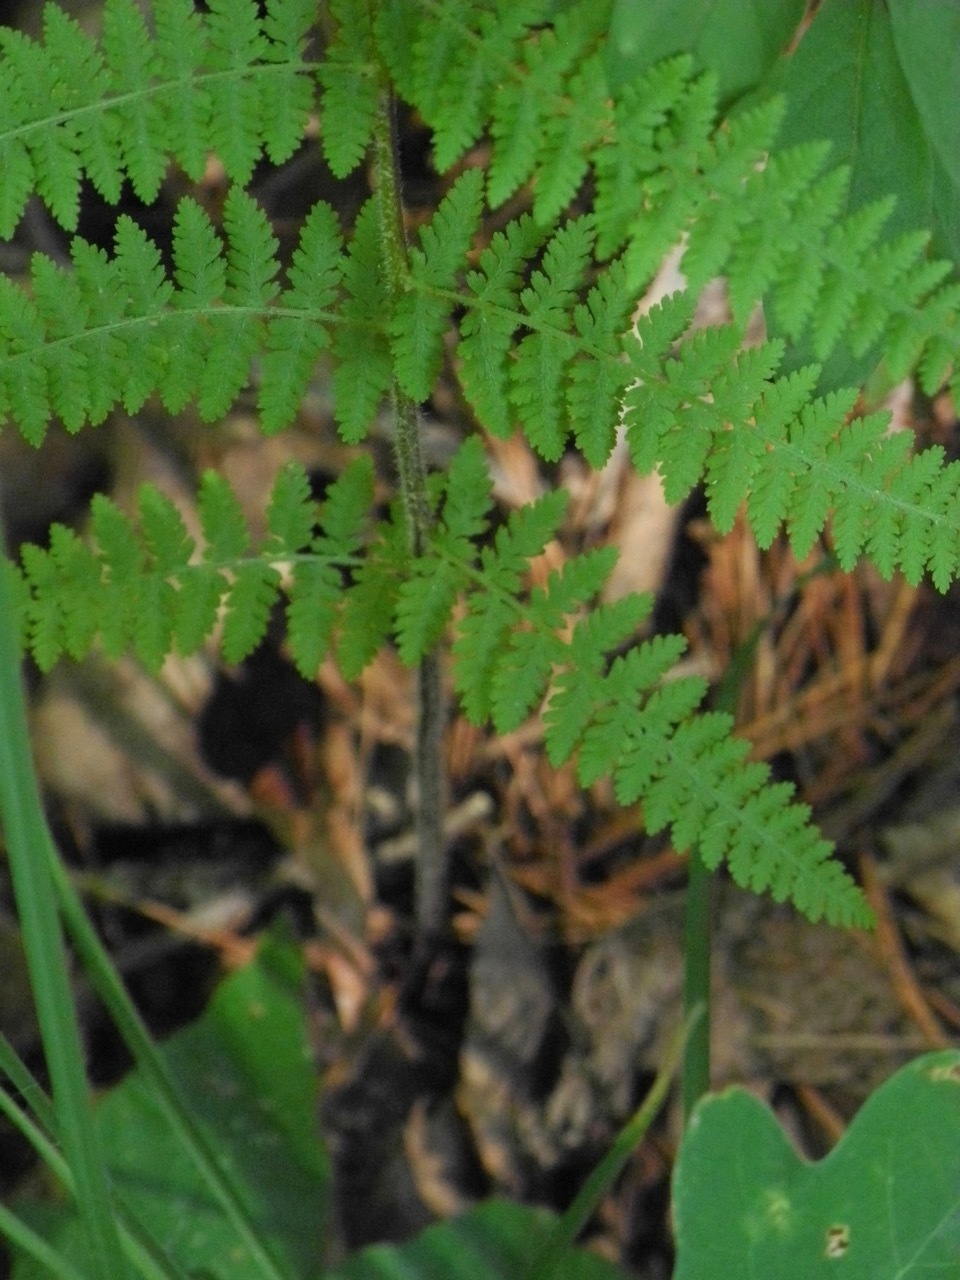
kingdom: Plantae
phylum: Tracheophyta
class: Polypodiopsida
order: Polypodiales
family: Dennstaedtiaceae
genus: Sitobolium
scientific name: Sitobolium punctilobum
